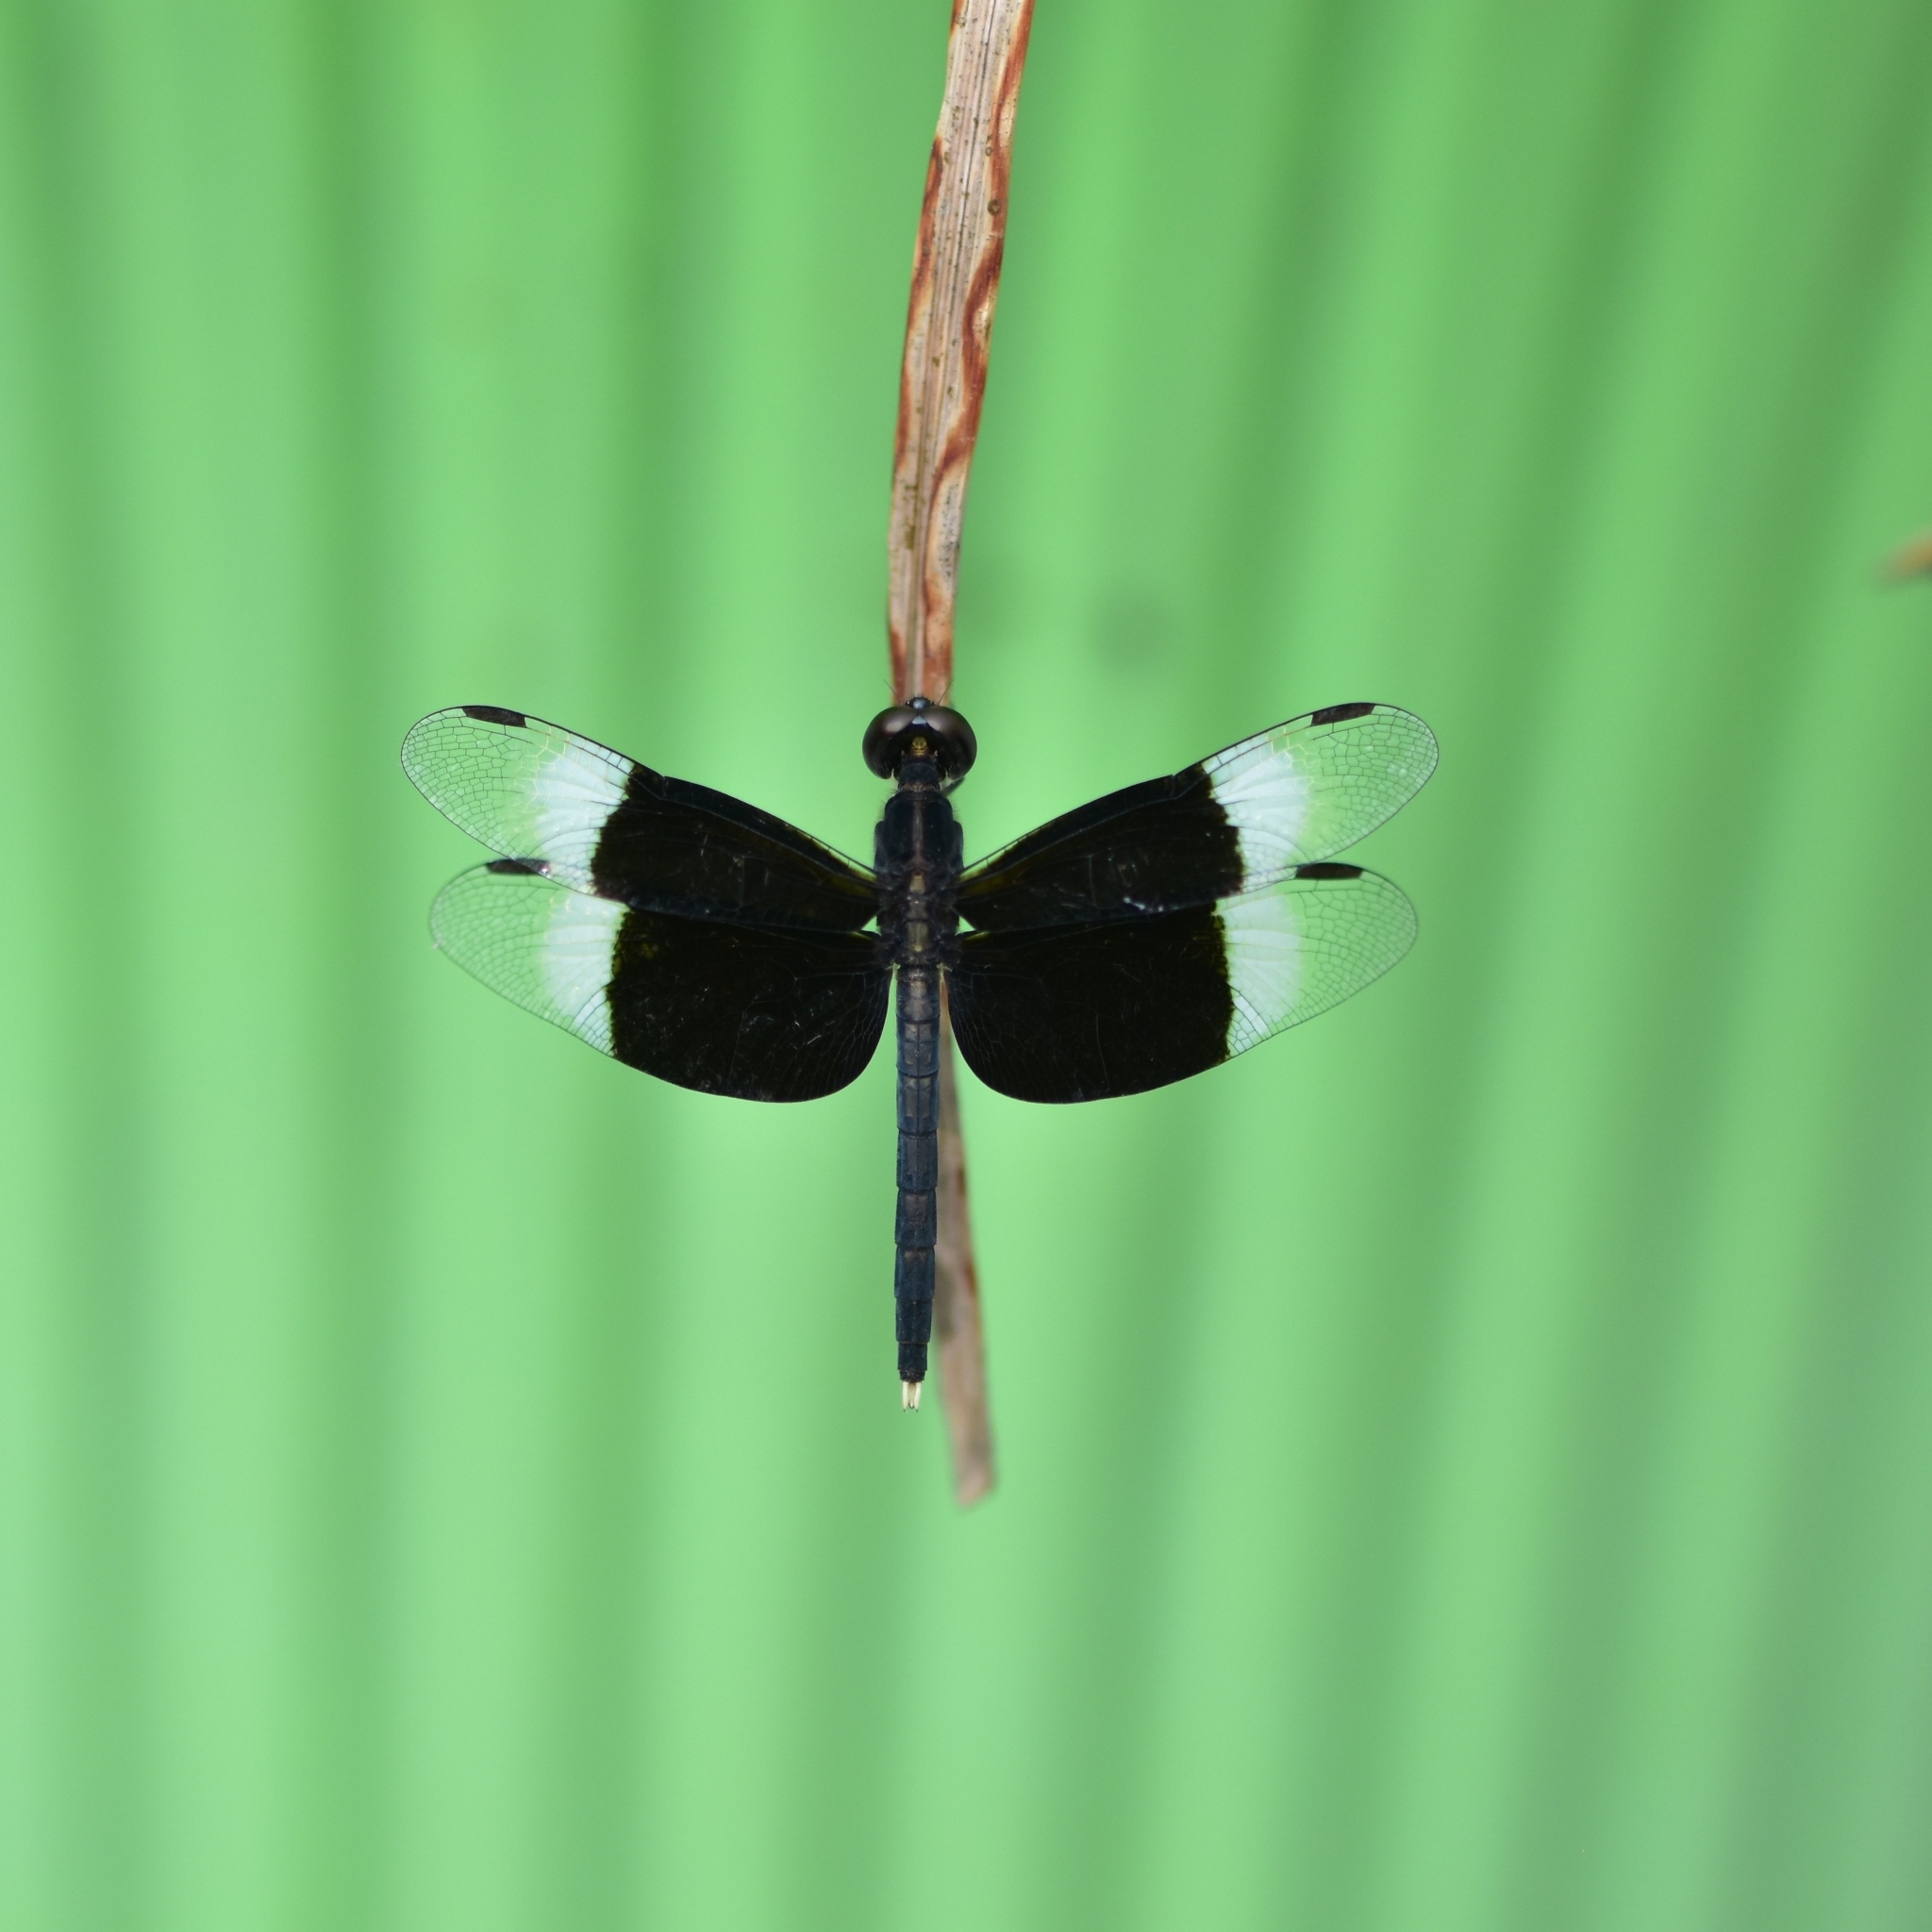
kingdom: Animalia
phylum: Arthropoda
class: Insecta
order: Odonata
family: Libellulidae
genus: Neurothemis
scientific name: Neurothemis tullia
